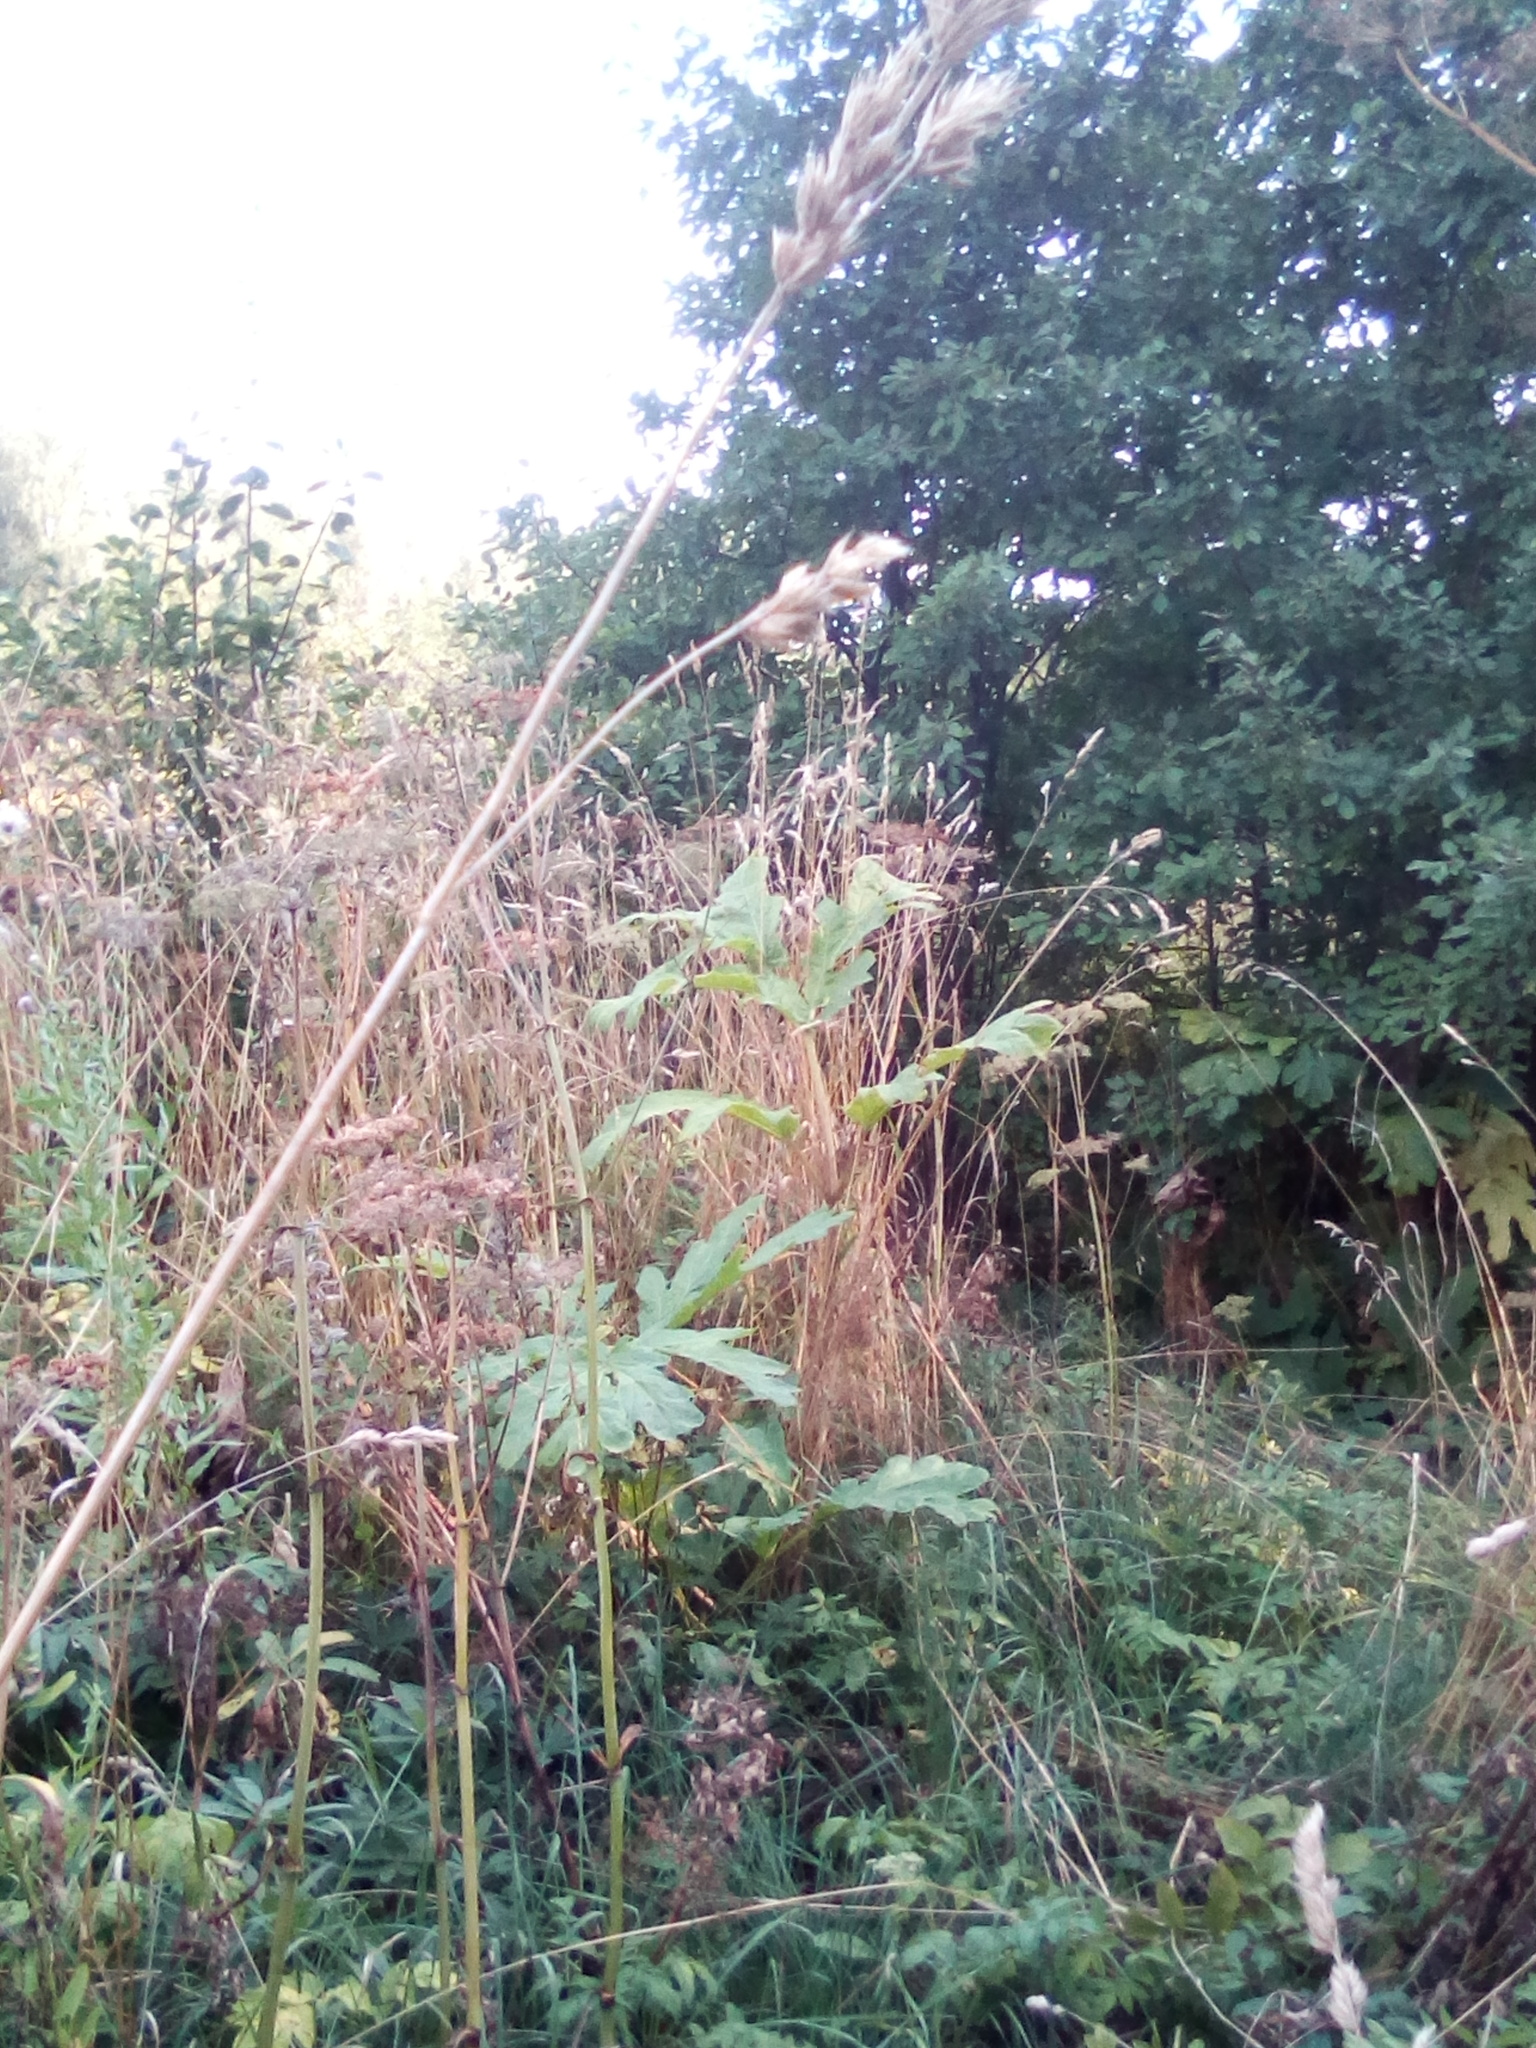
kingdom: Plantae
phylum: Tracheophyta
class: Magnoliopsida
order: Apiales
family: Apiaceae
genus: Heracleum
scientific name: Heracleum sosnowskyi
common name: Sosnowsky's hogweed
